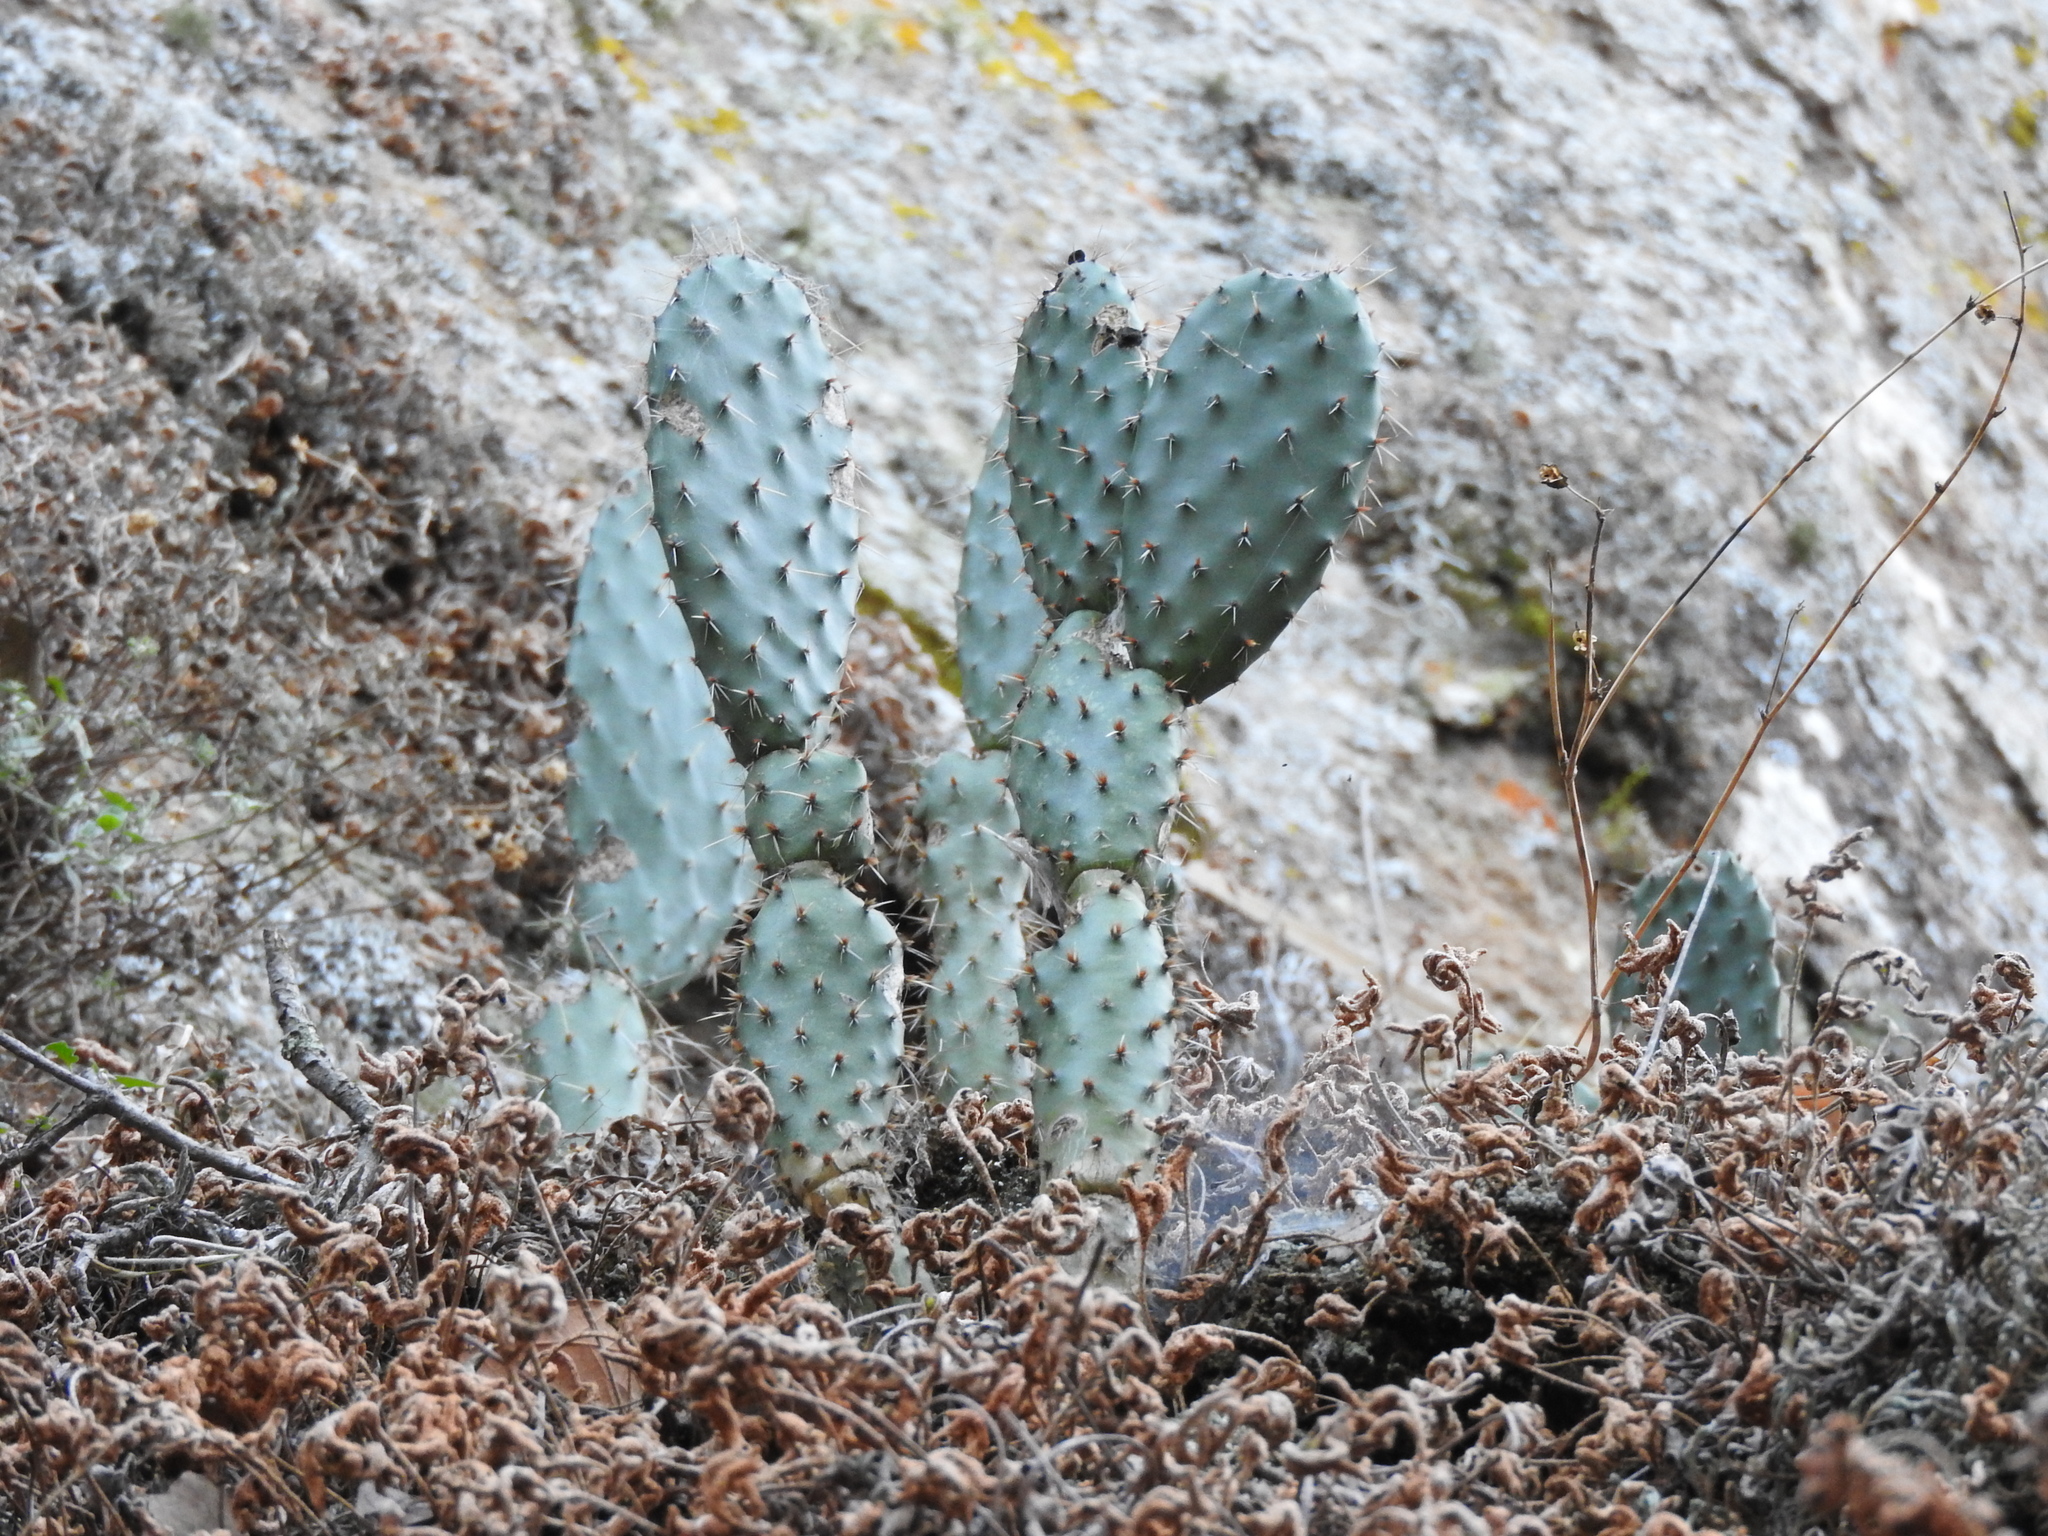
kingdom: Plantae
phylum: Tracheophyta
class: Magnoliopsida
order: Caryophyllales
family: Cactaceae
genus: Opuntia
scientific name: Opuntia hyptiacantha
